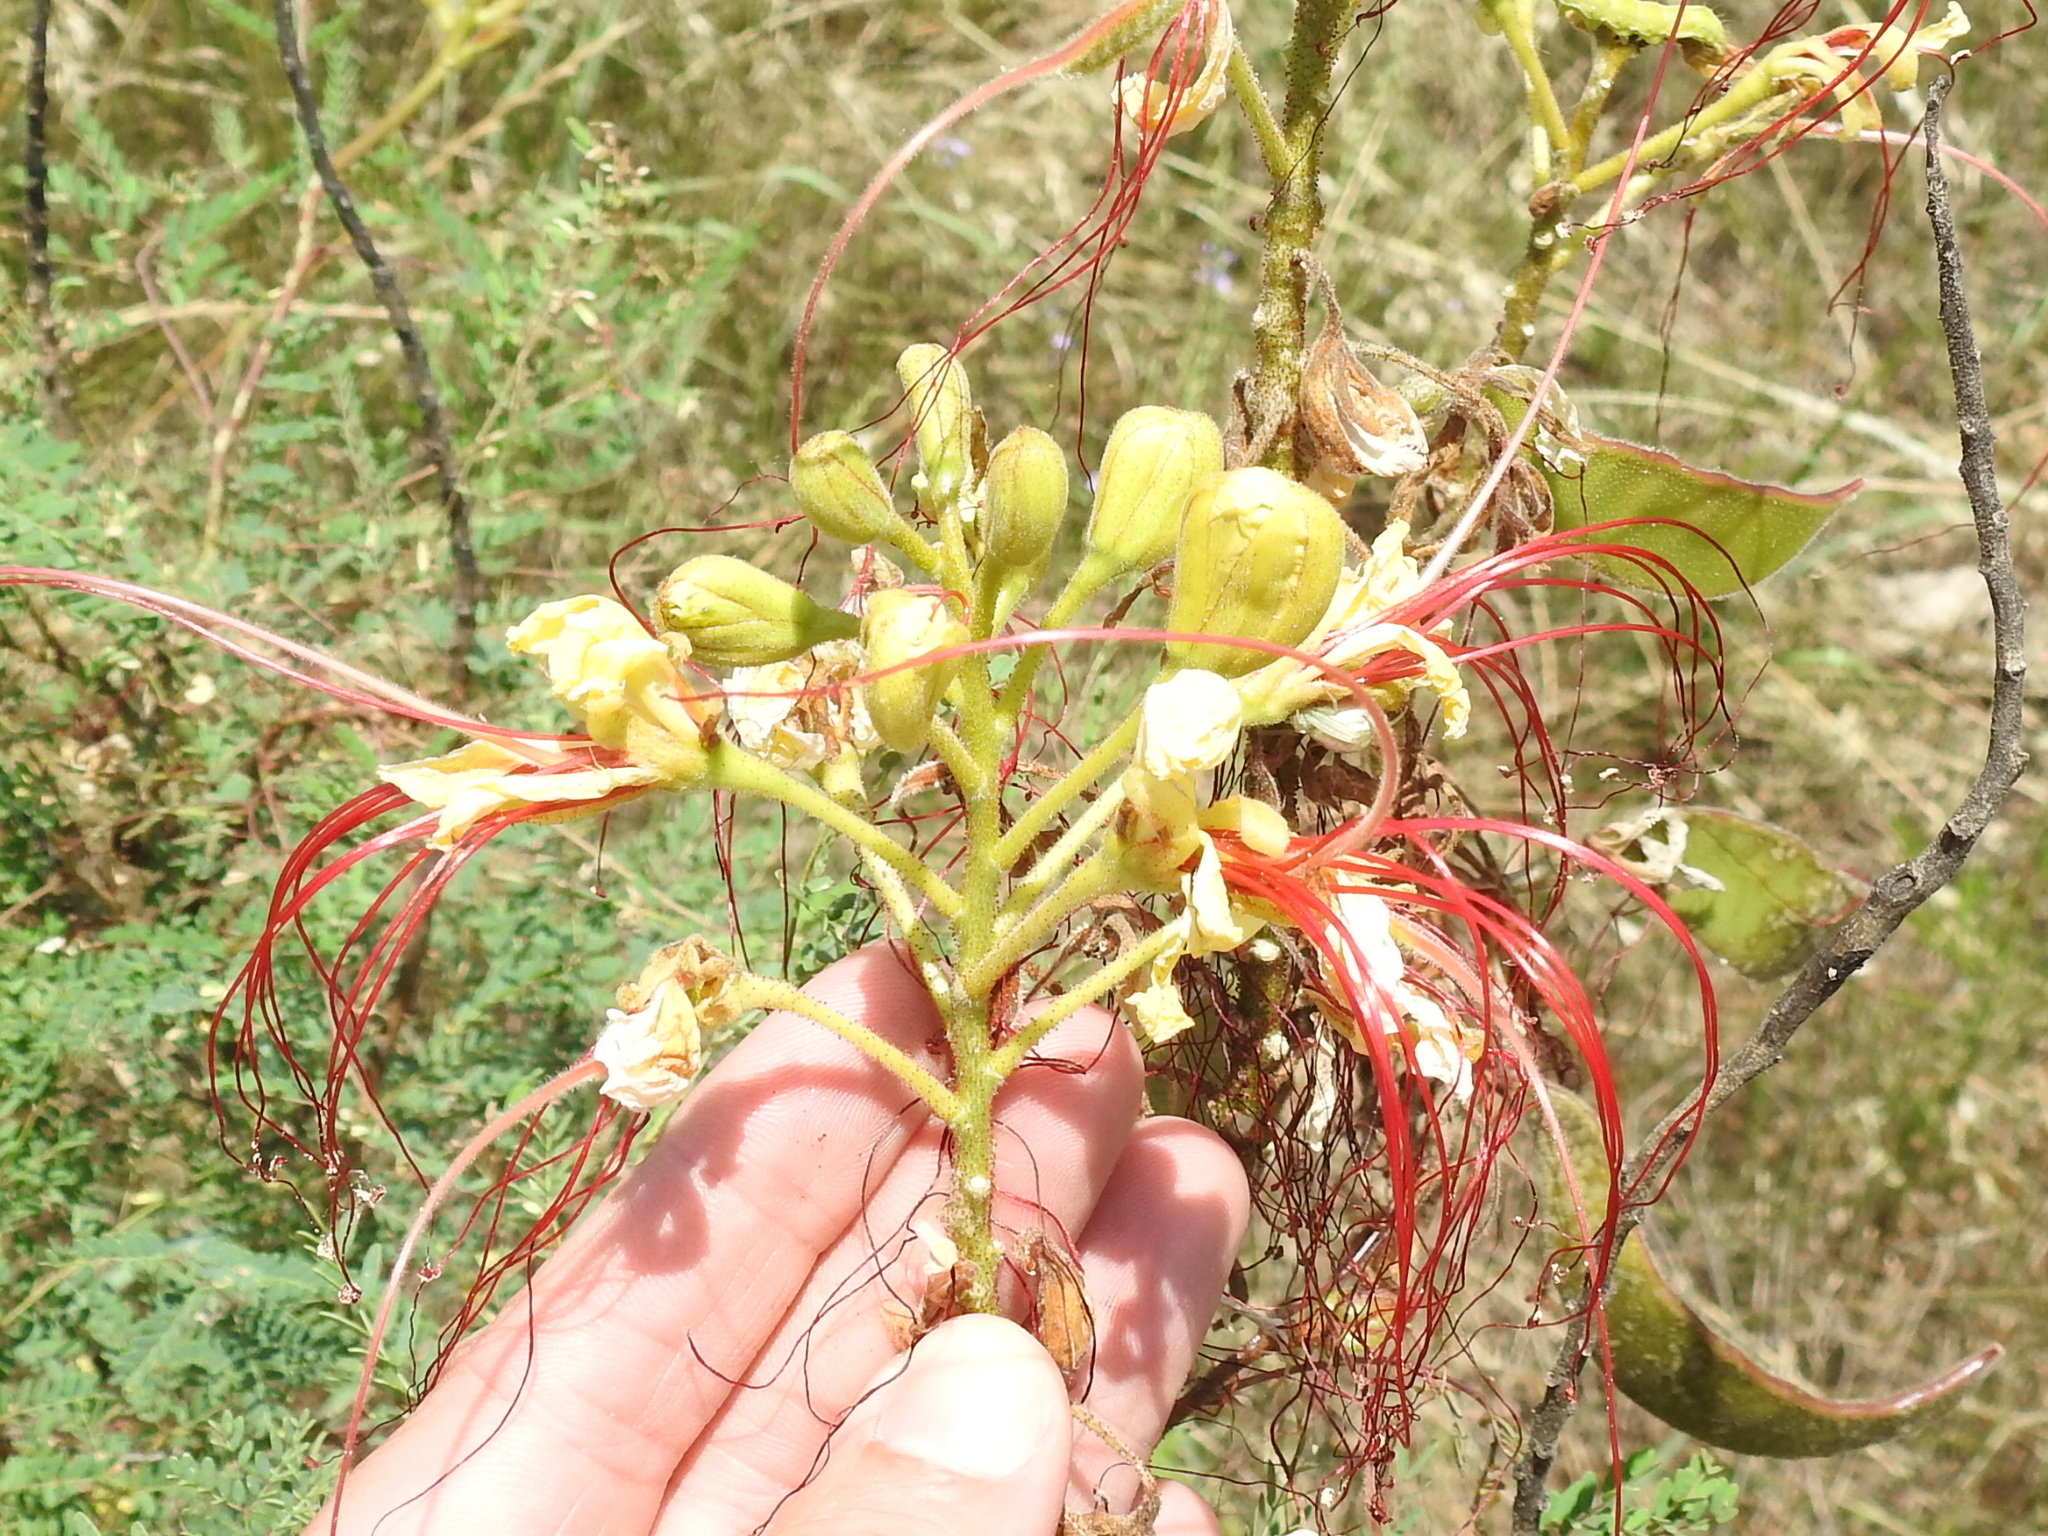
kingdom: Plantae
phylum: Tracheophyta
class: Magnoliopsida
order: Fabales
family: Fabaceae
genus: Erythrostemon
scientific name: Erythrostemon gilliesii
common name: Bird-of-paradise shrub
